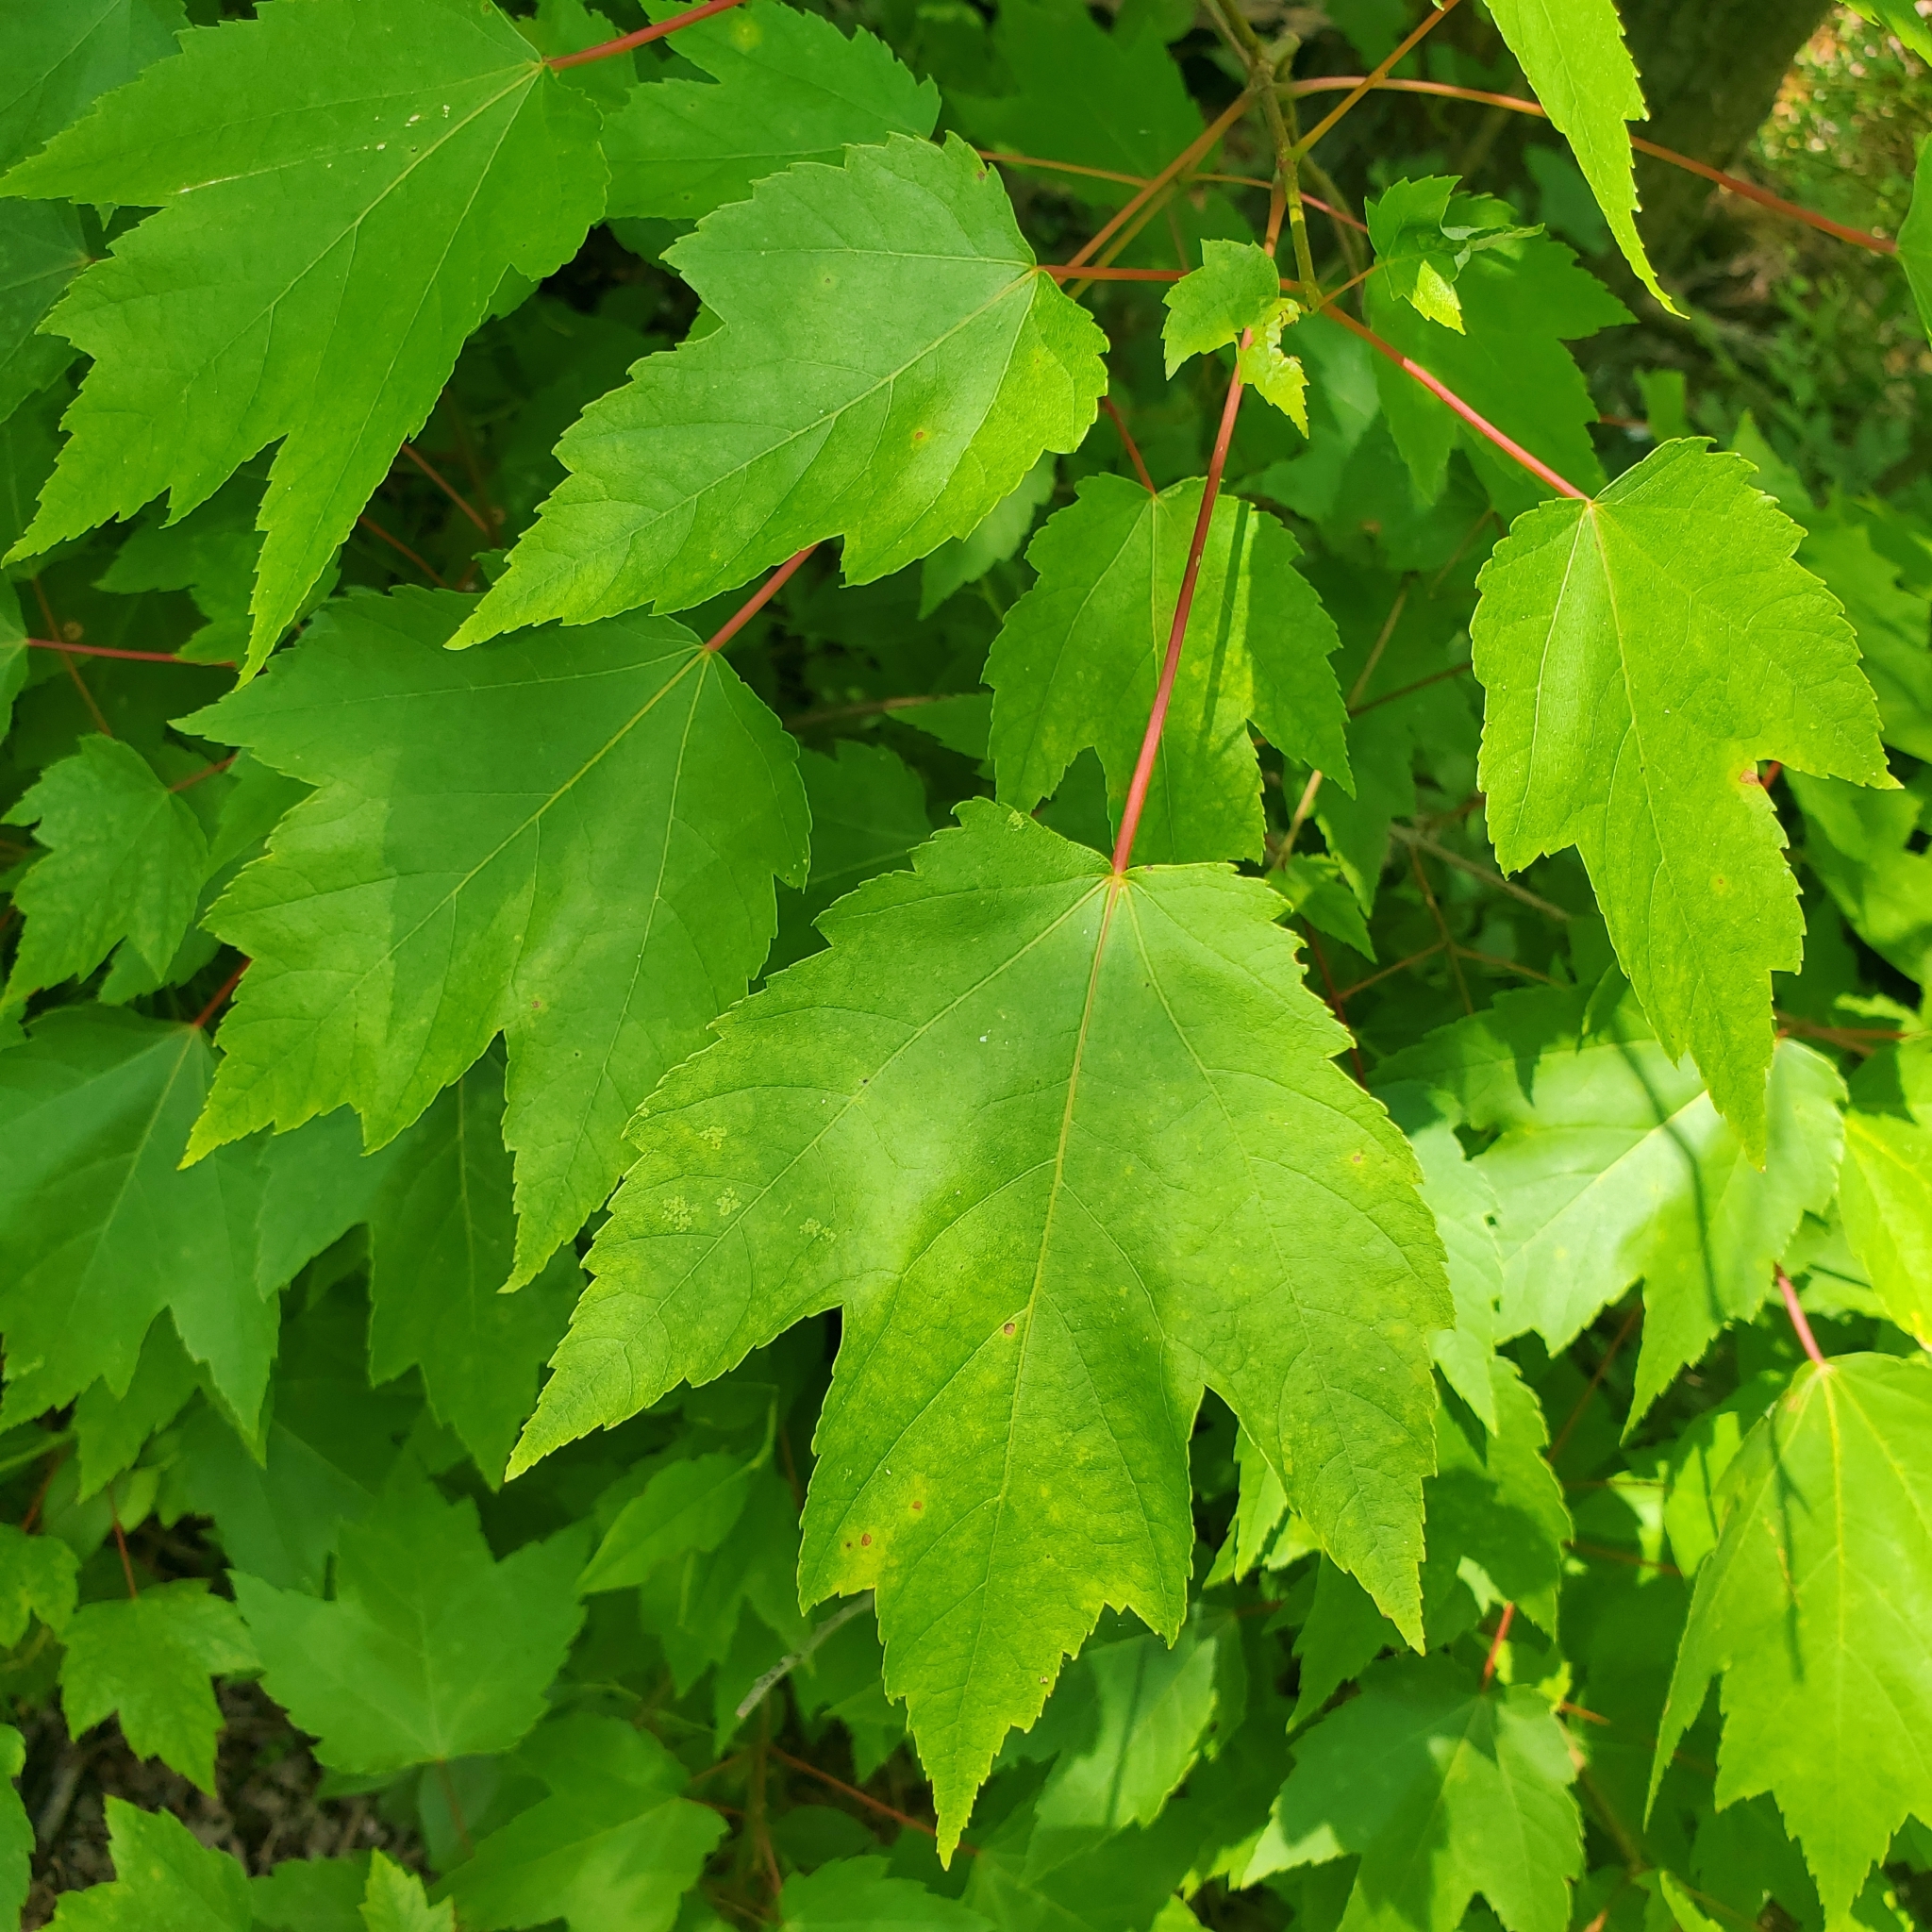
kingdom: Plantae
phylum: Tracheophyta
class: Magnoliopsida
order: Sapindales
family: Sapindaceae
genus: Acer
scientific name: Acer rubrum
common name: Red maple
